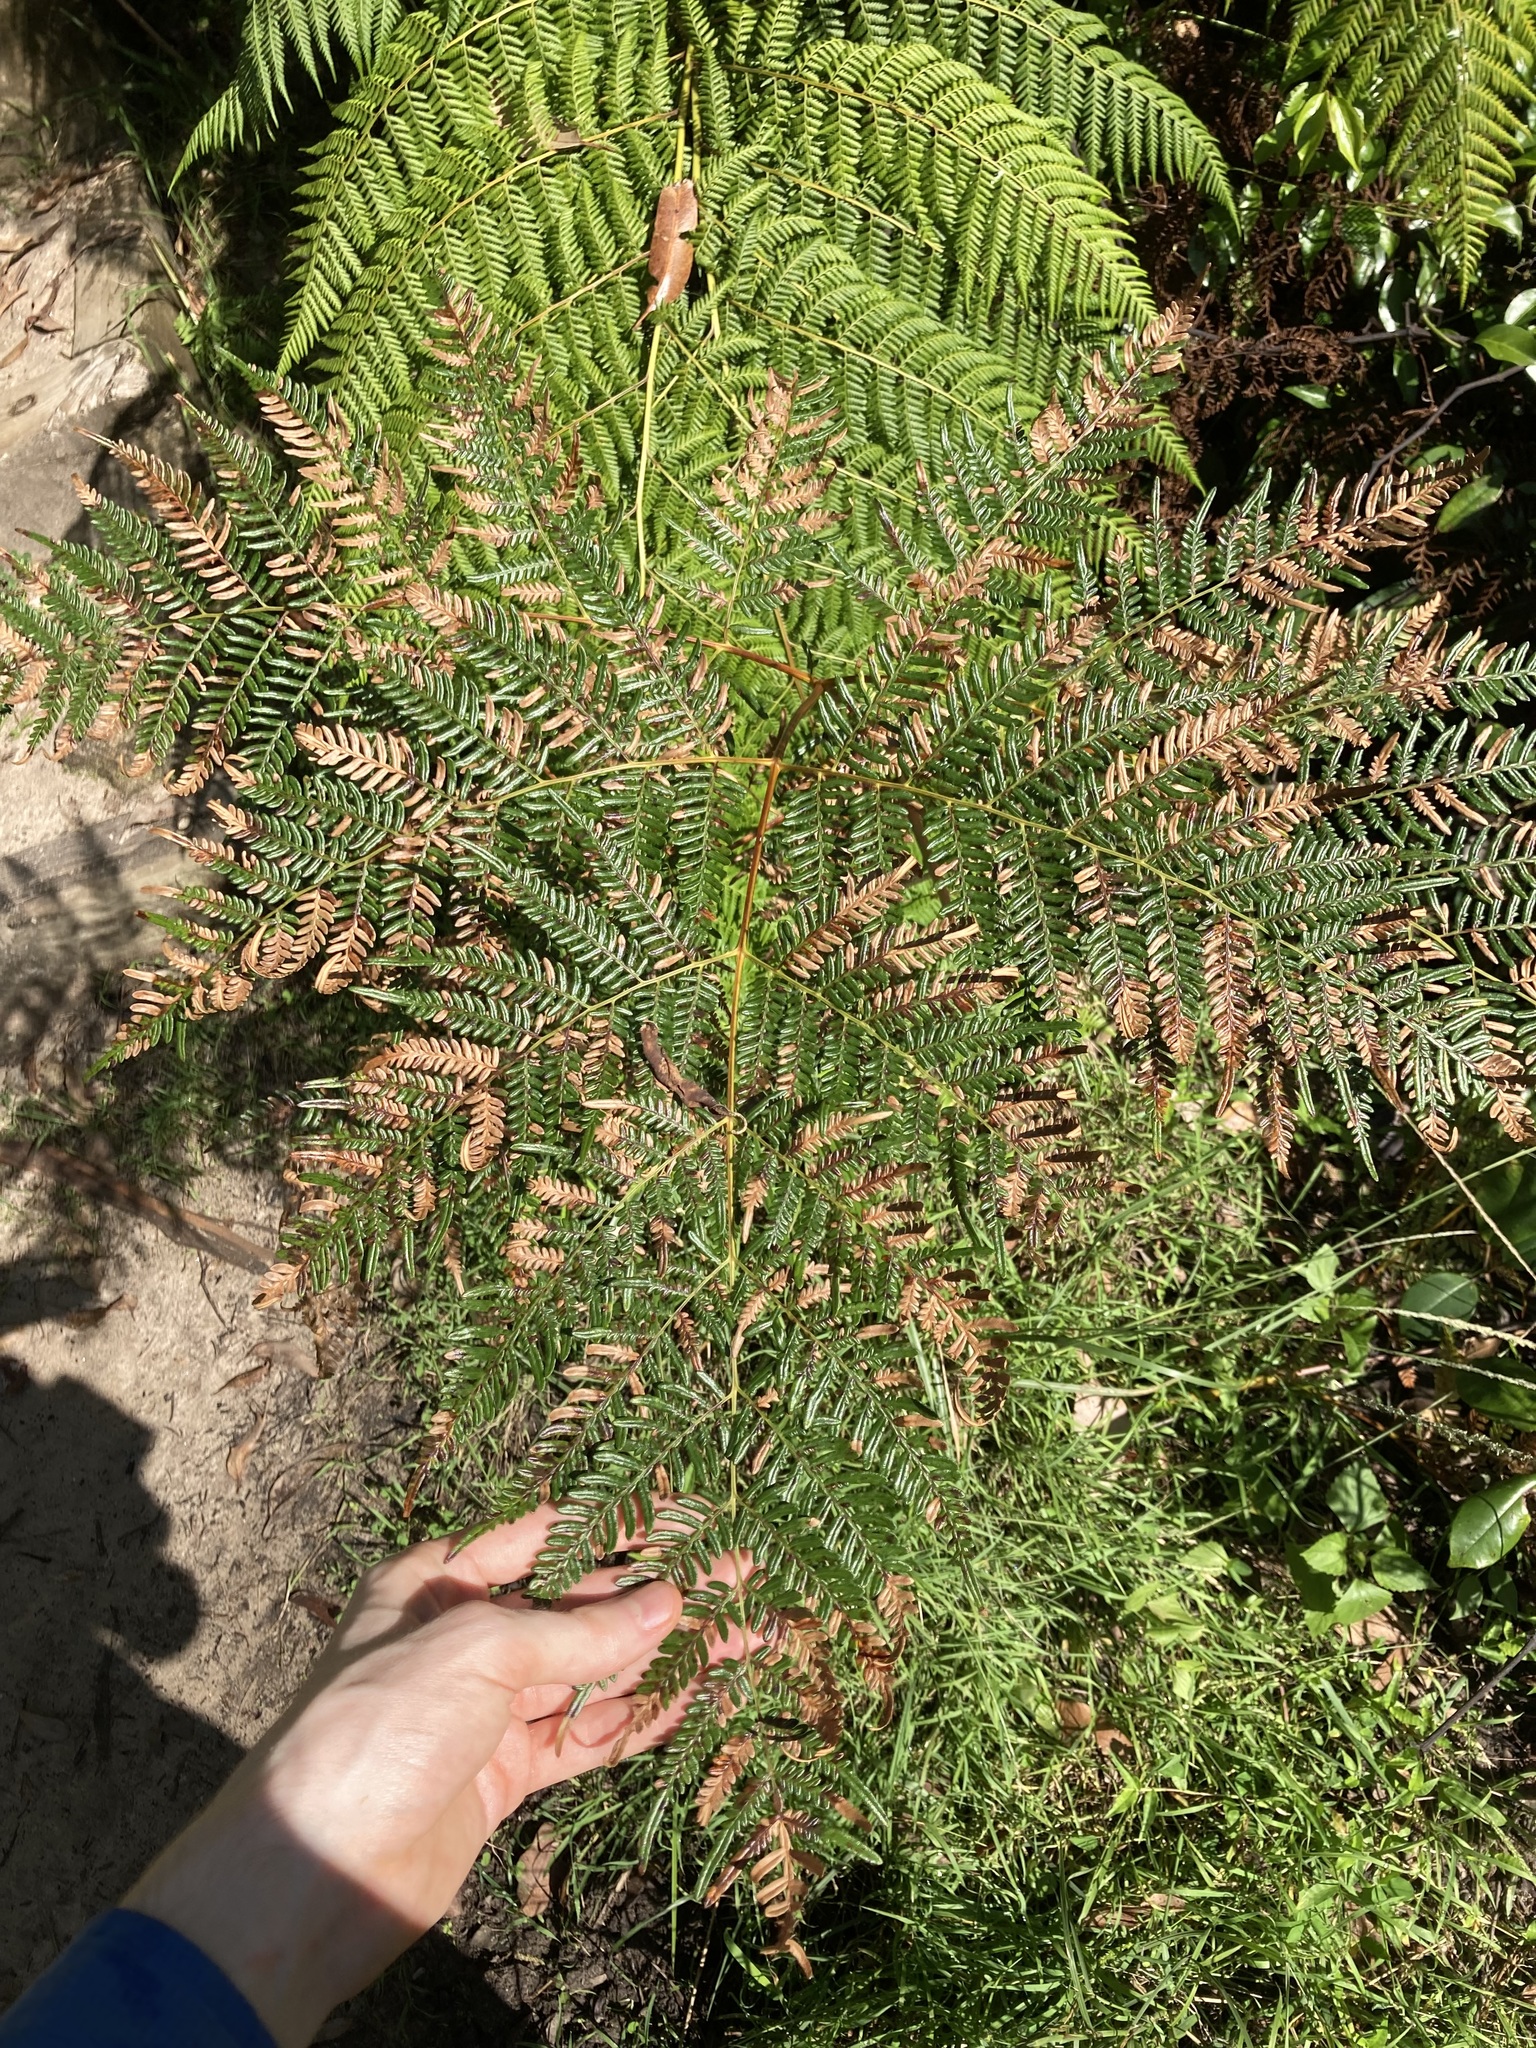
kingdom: Plantae
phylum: Tracheophyta
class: Polypodiopsida
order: Polypodiales
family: Dennstaedtiaceae
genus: Pteridium
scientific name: Pteridium esculentum
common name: Bracken fern
